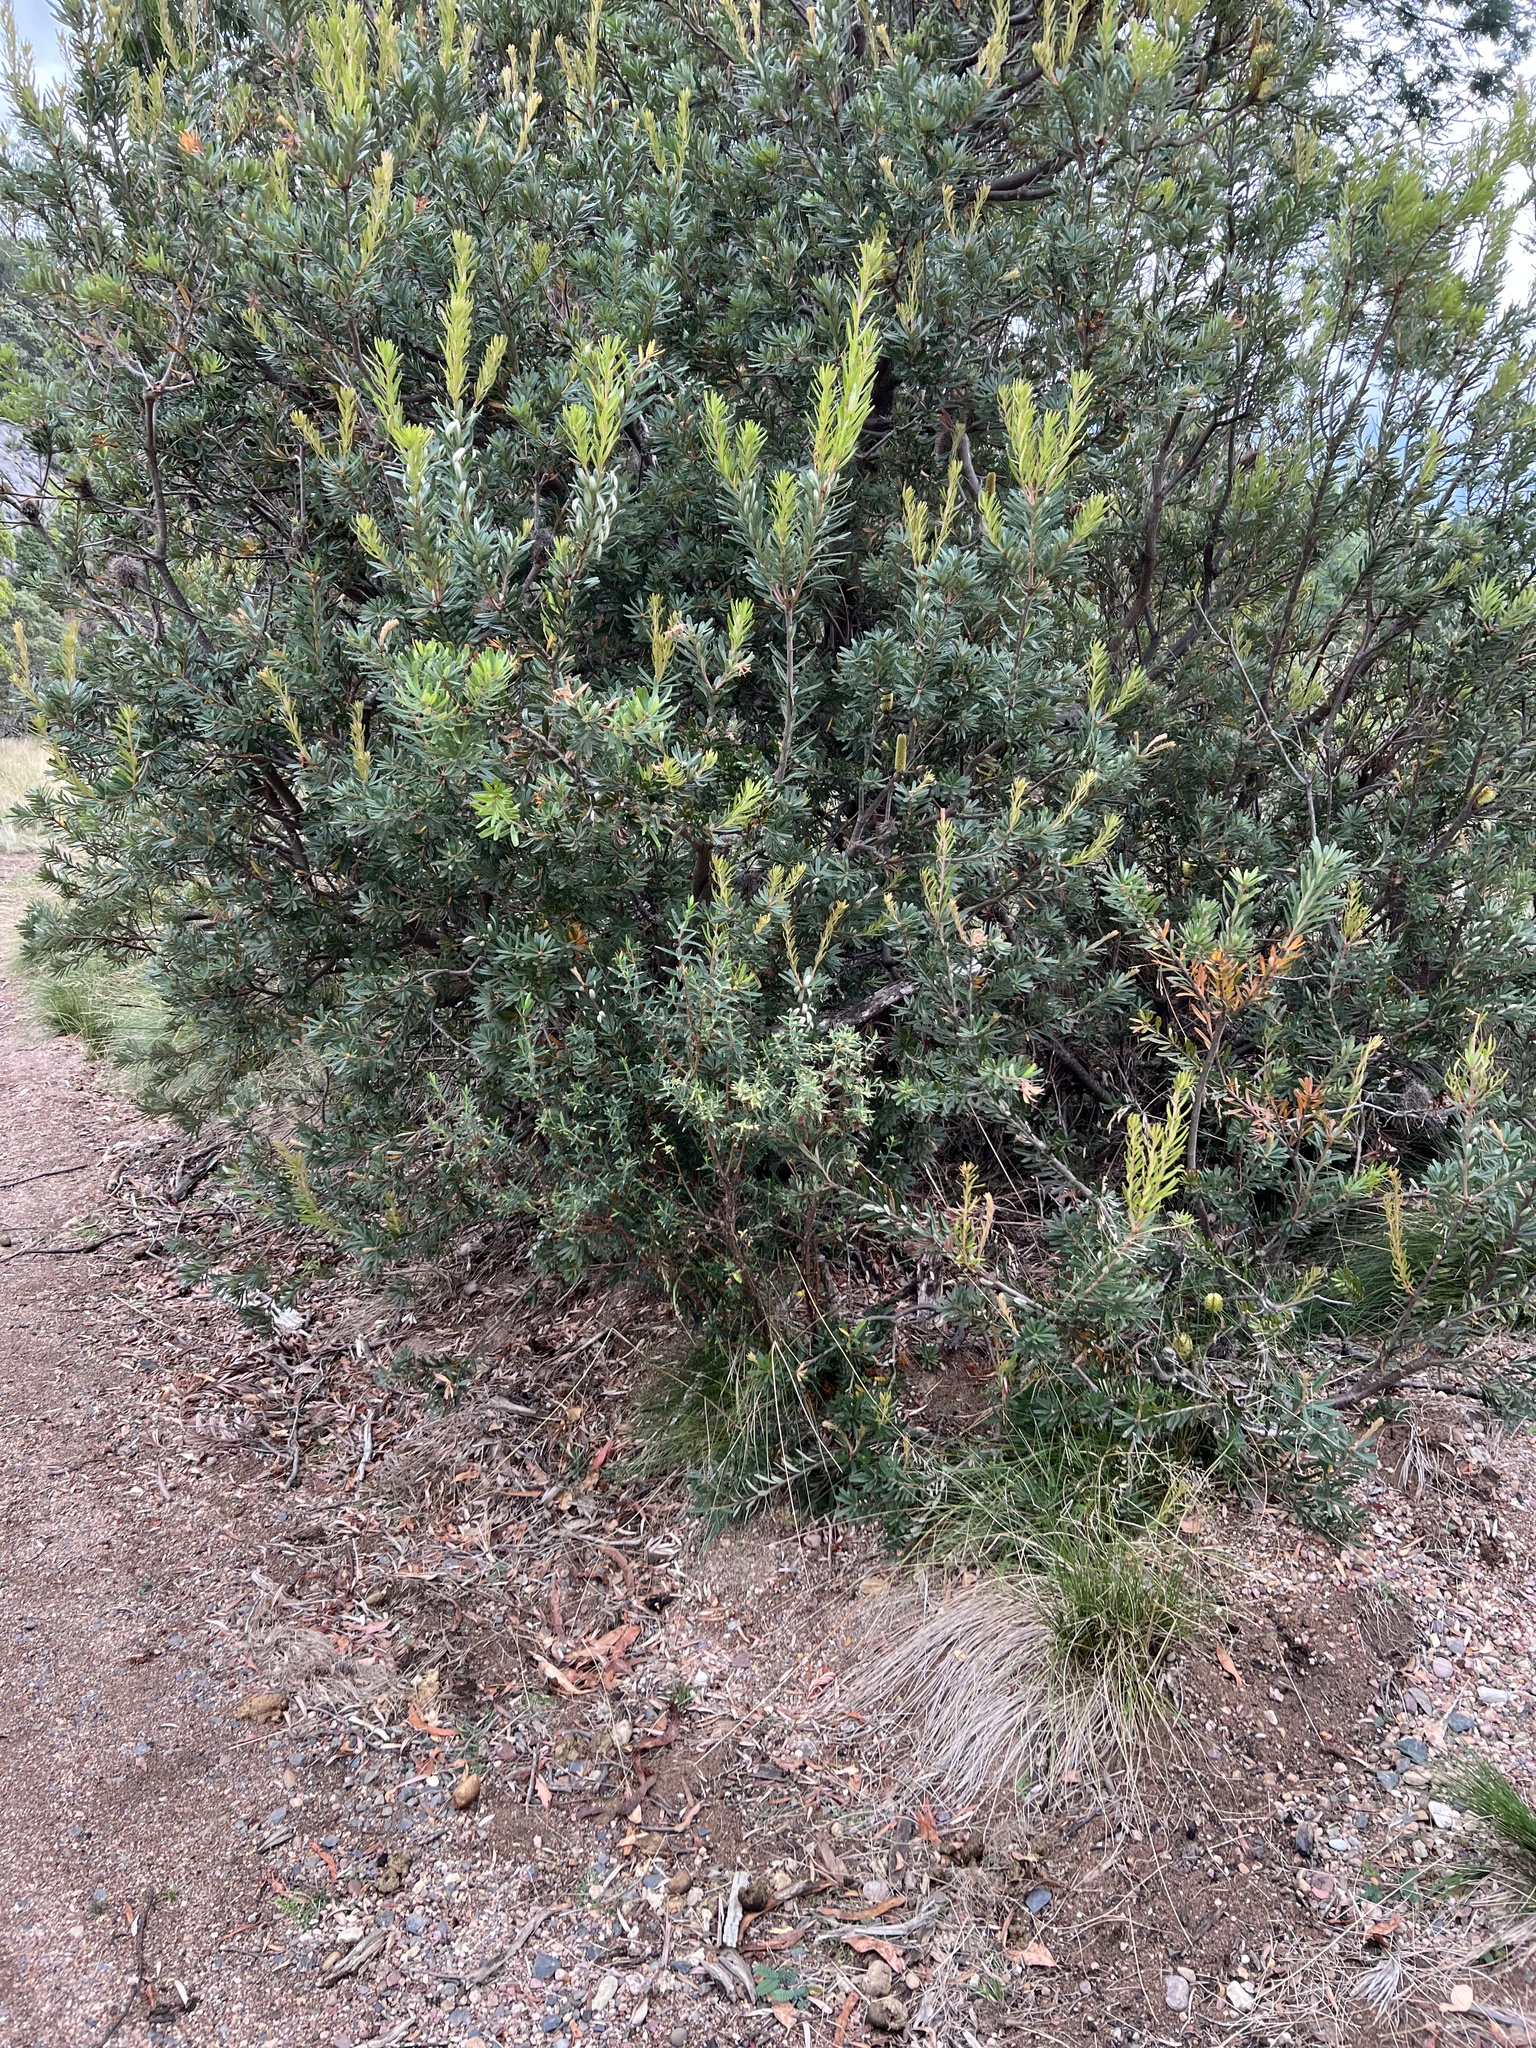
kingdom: Plantae
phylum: Tracheophyta
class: Magnoliopsida
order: Proteales
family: Proteaceae
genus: Banksia
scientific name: Banksia marginata
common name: Silver banksia
